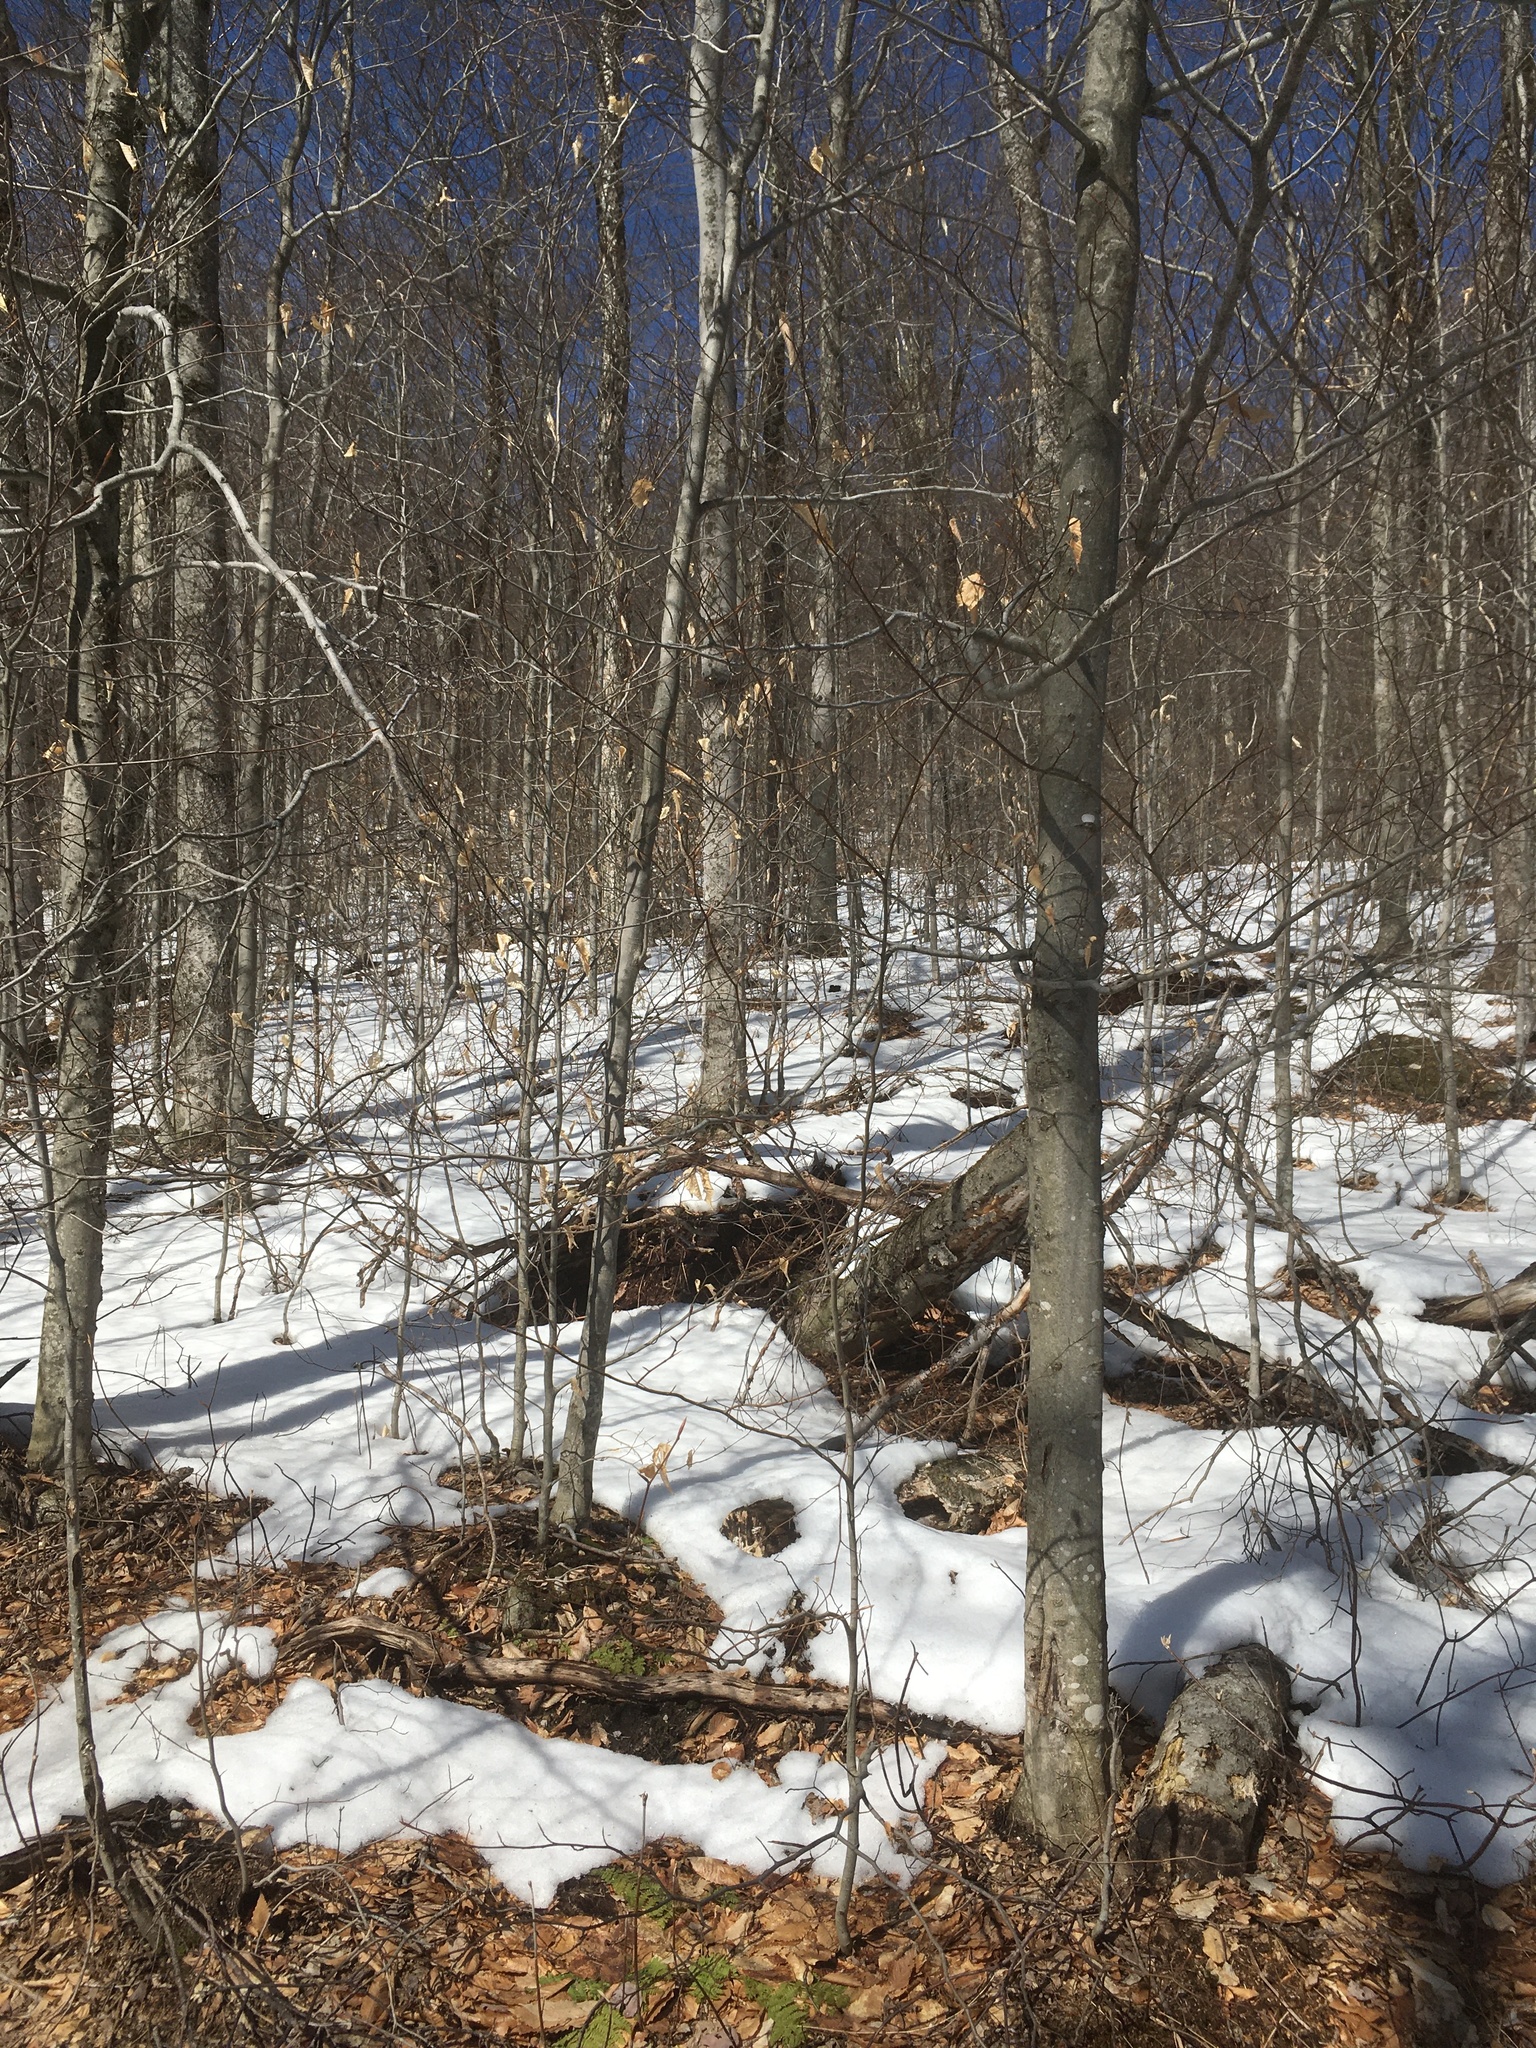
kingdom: Plantae
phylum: Tracheophyta
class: Magnoliopsida
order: Fagales
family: Fagaceae
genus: Fagus
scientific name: Fagus grandifolia
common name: American beech
